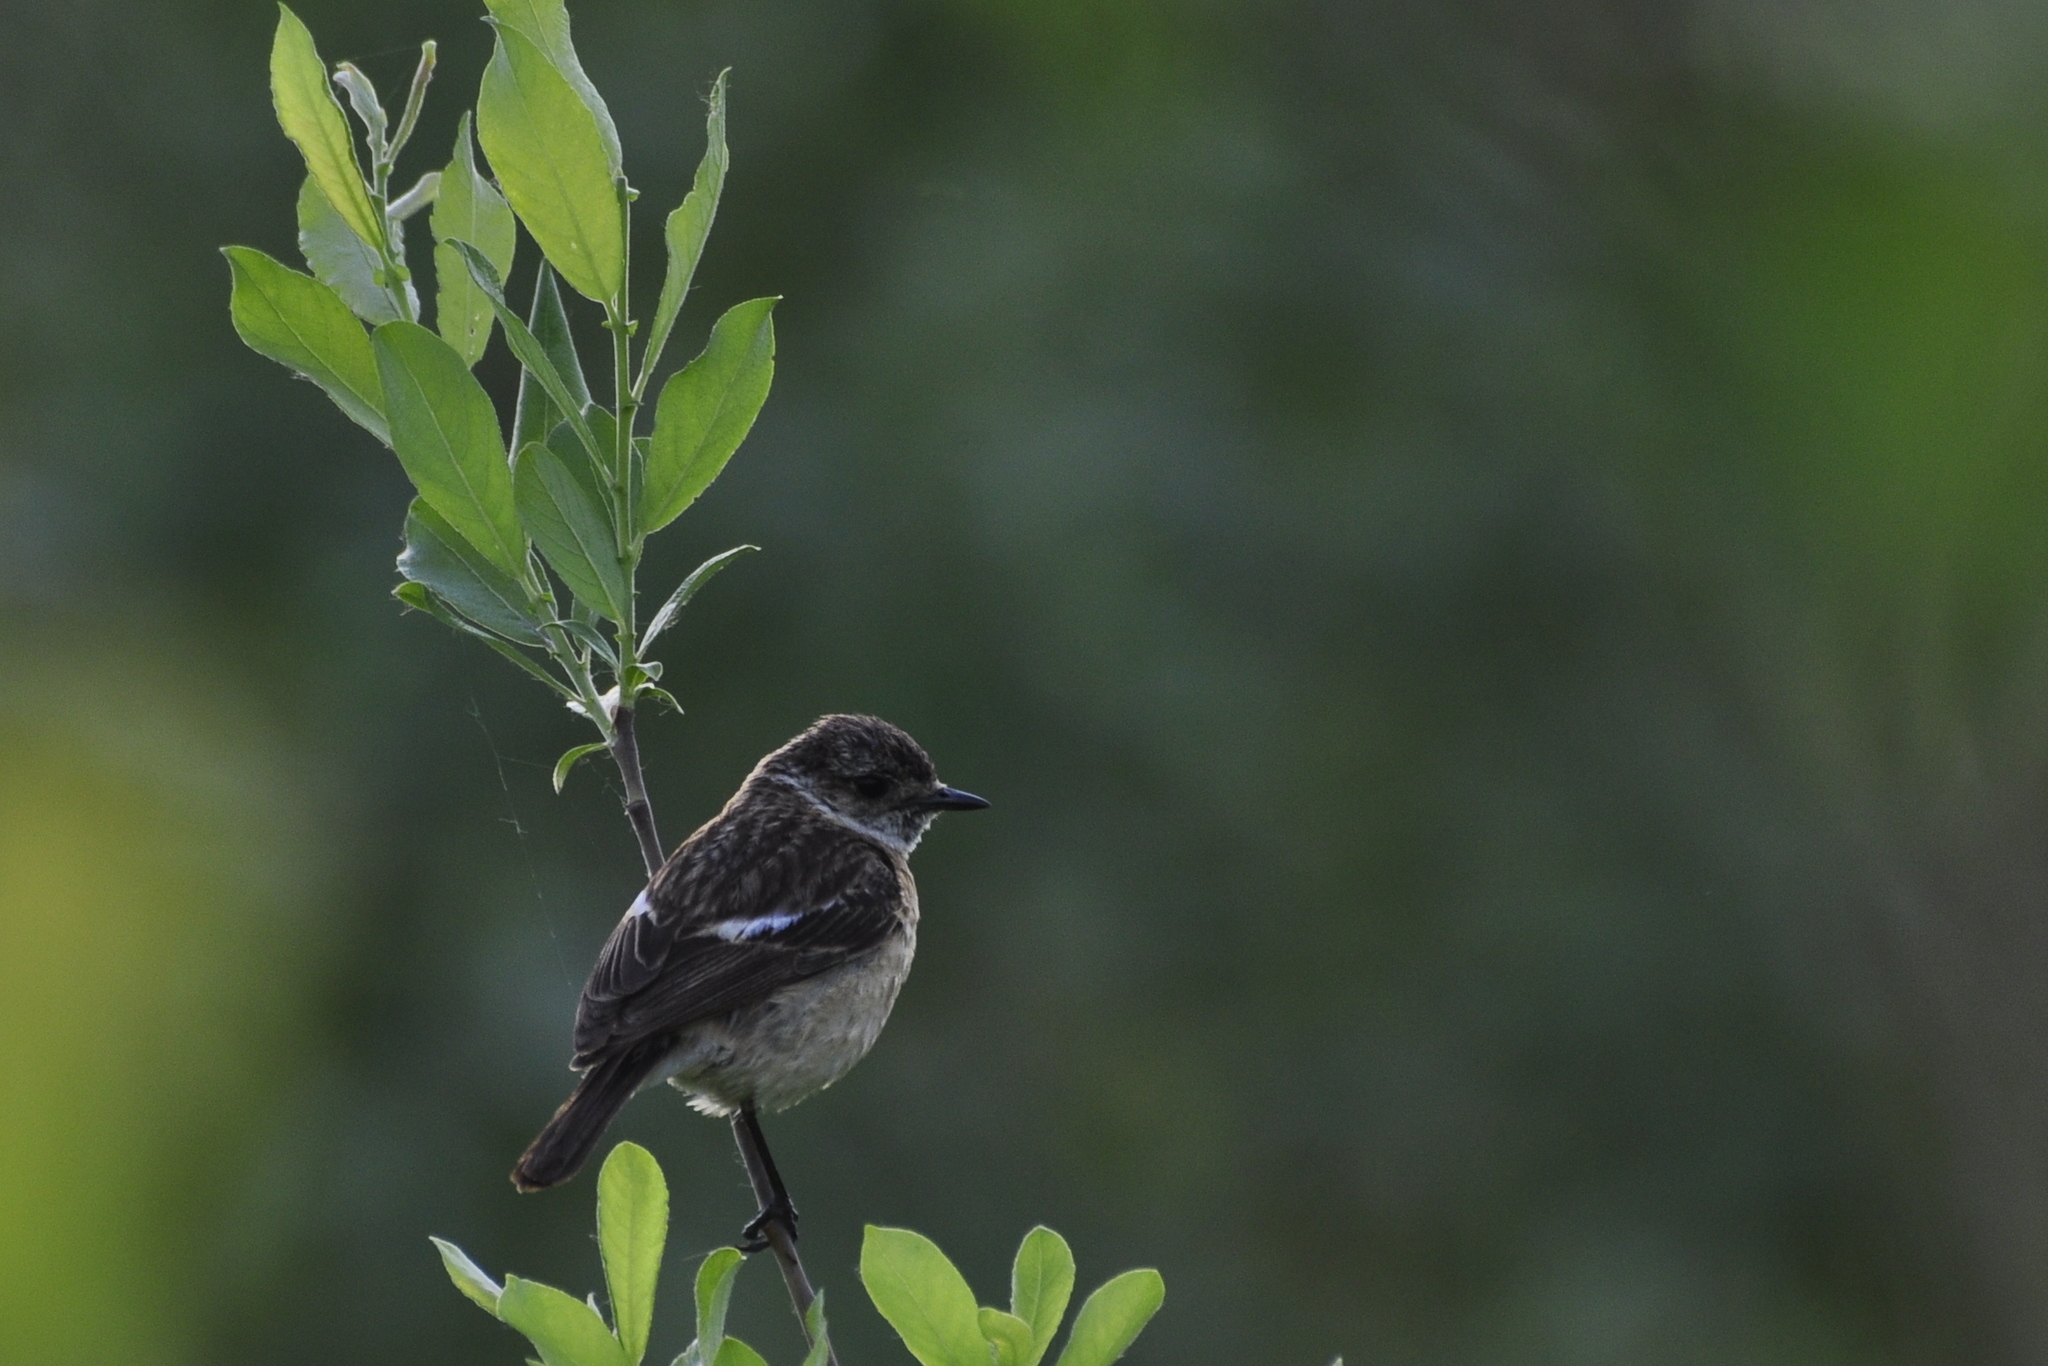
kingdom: Animalia
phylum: Chordata
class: Aves
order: Passeriformes
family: Muscicapidae
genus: Saxicola
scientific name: Saxicola maurus
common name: Siberian stonechat
